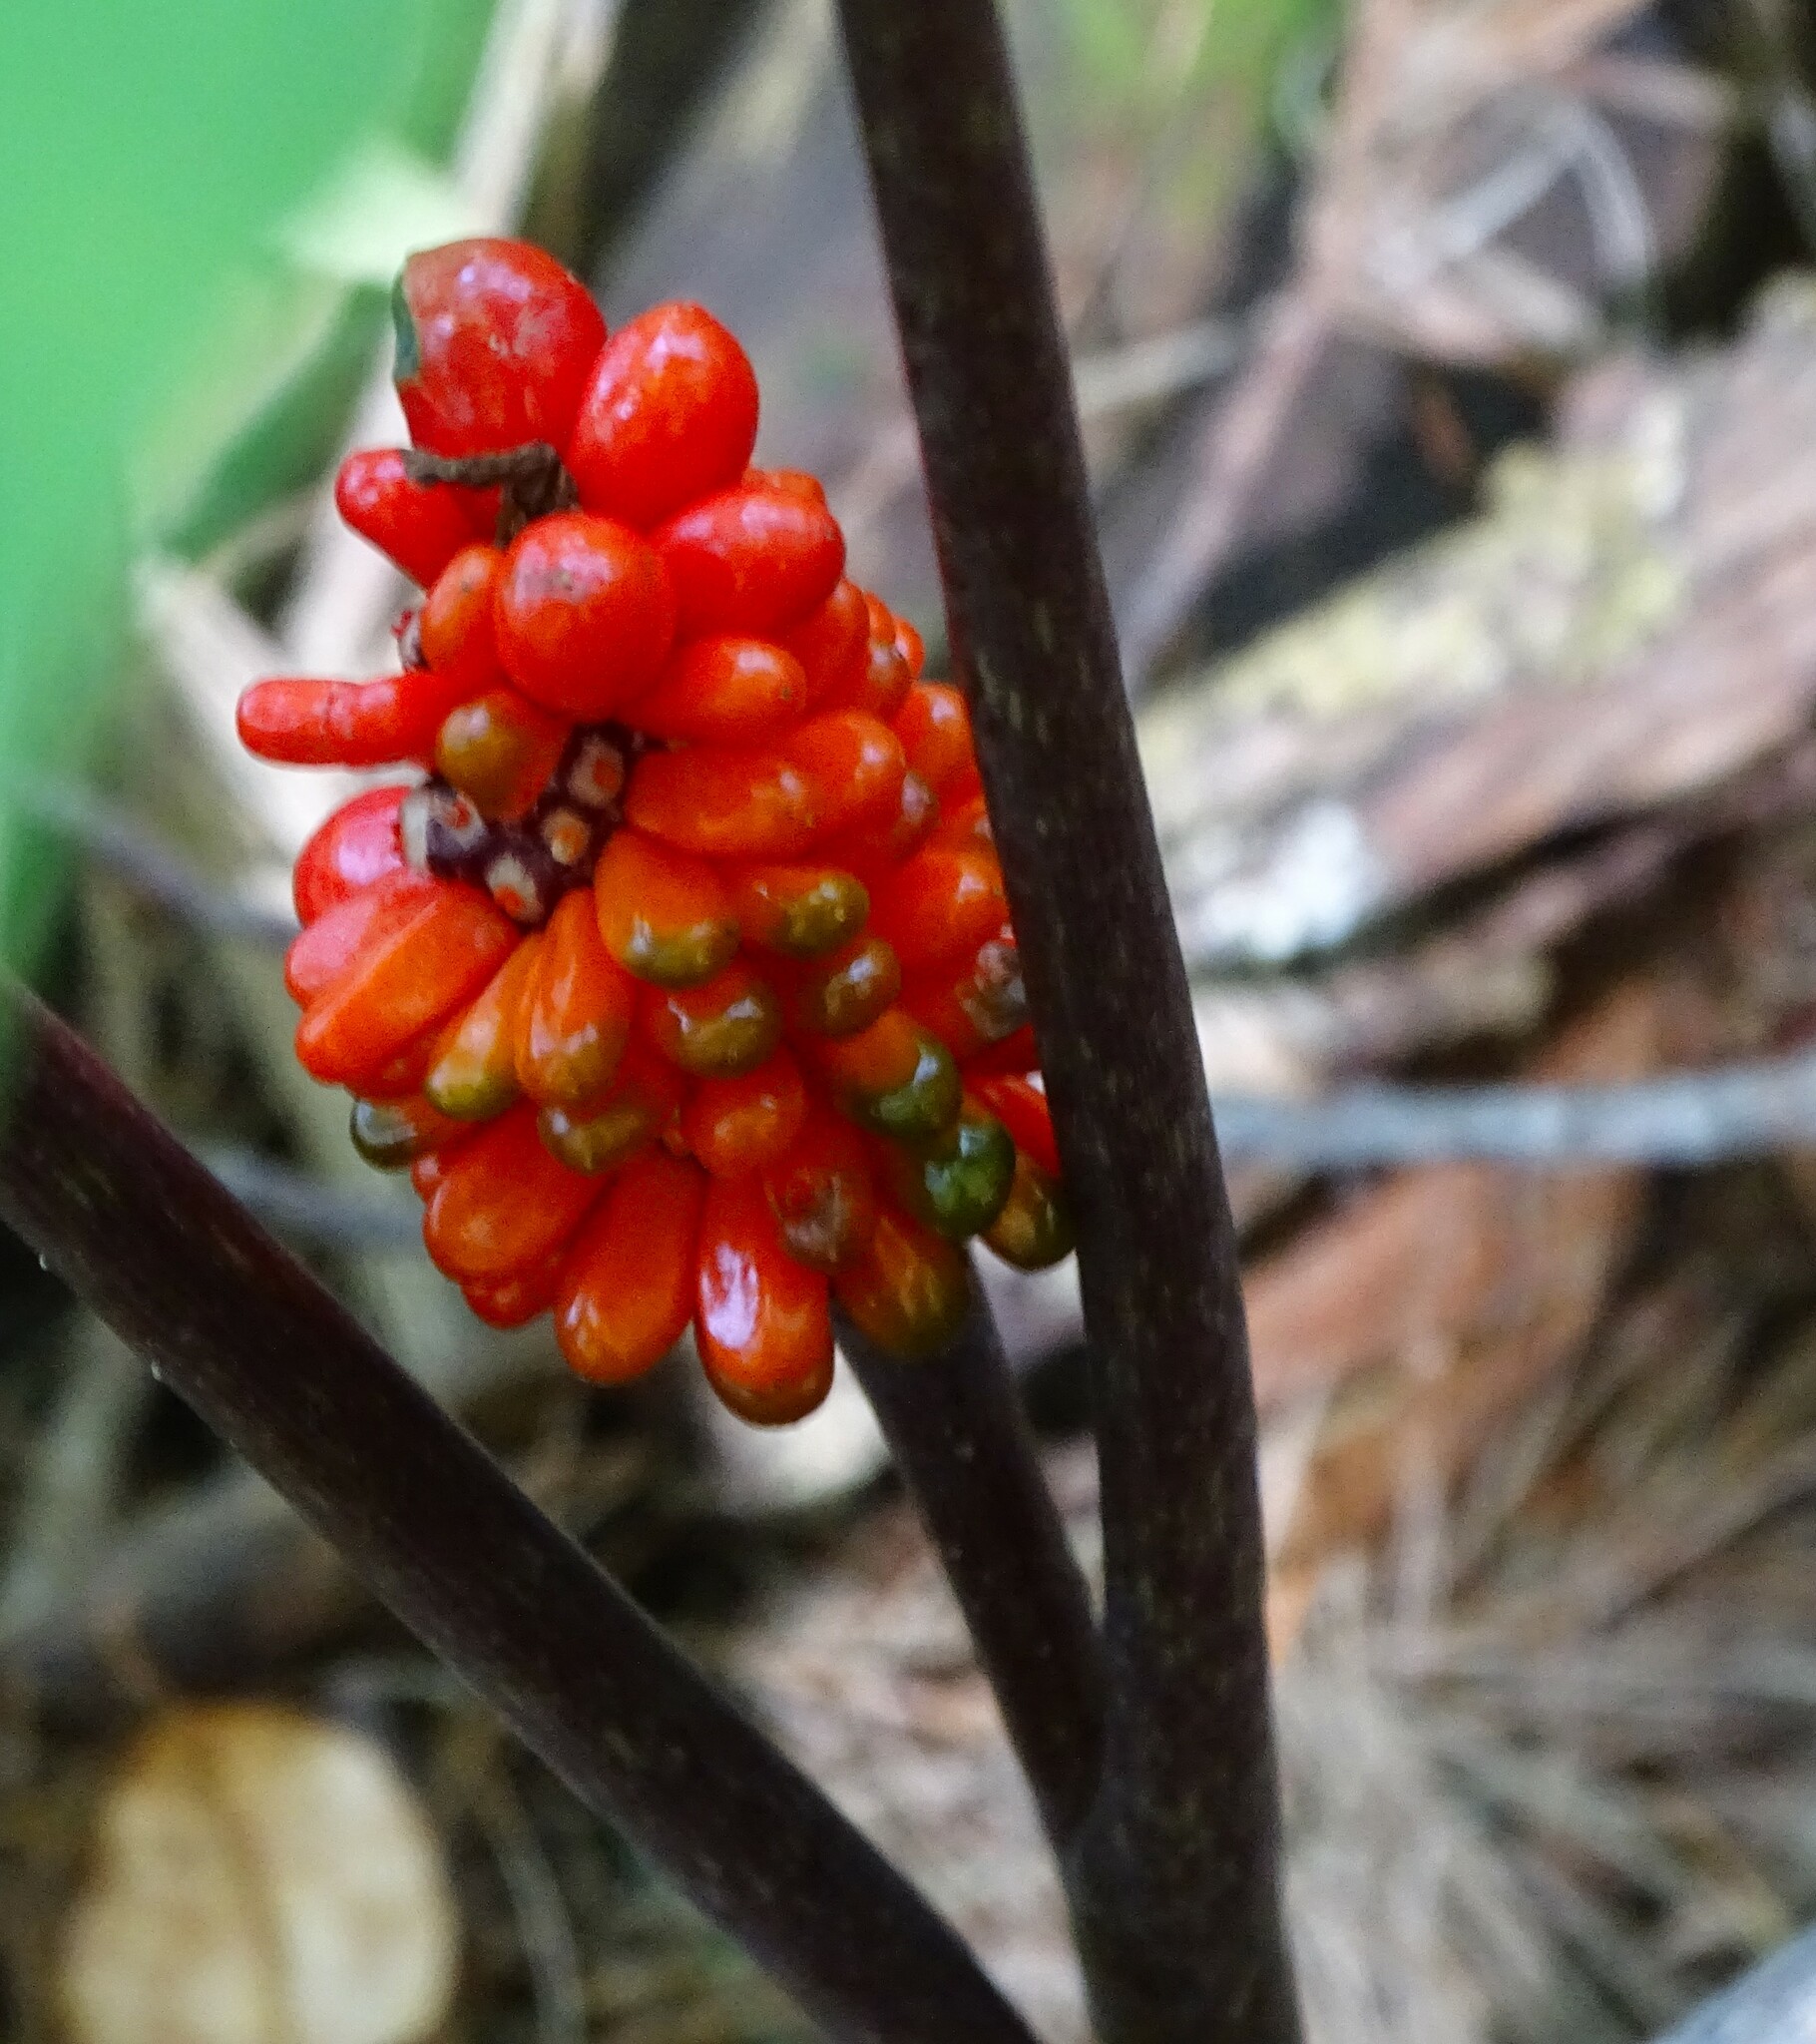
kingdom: Plantae
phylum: Tracheophyta
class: Liliopsida
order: Alismatales
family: Araceae
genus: Arisaema
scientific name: Arisaema triphyllum
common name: Jack-in-the-pulpit
